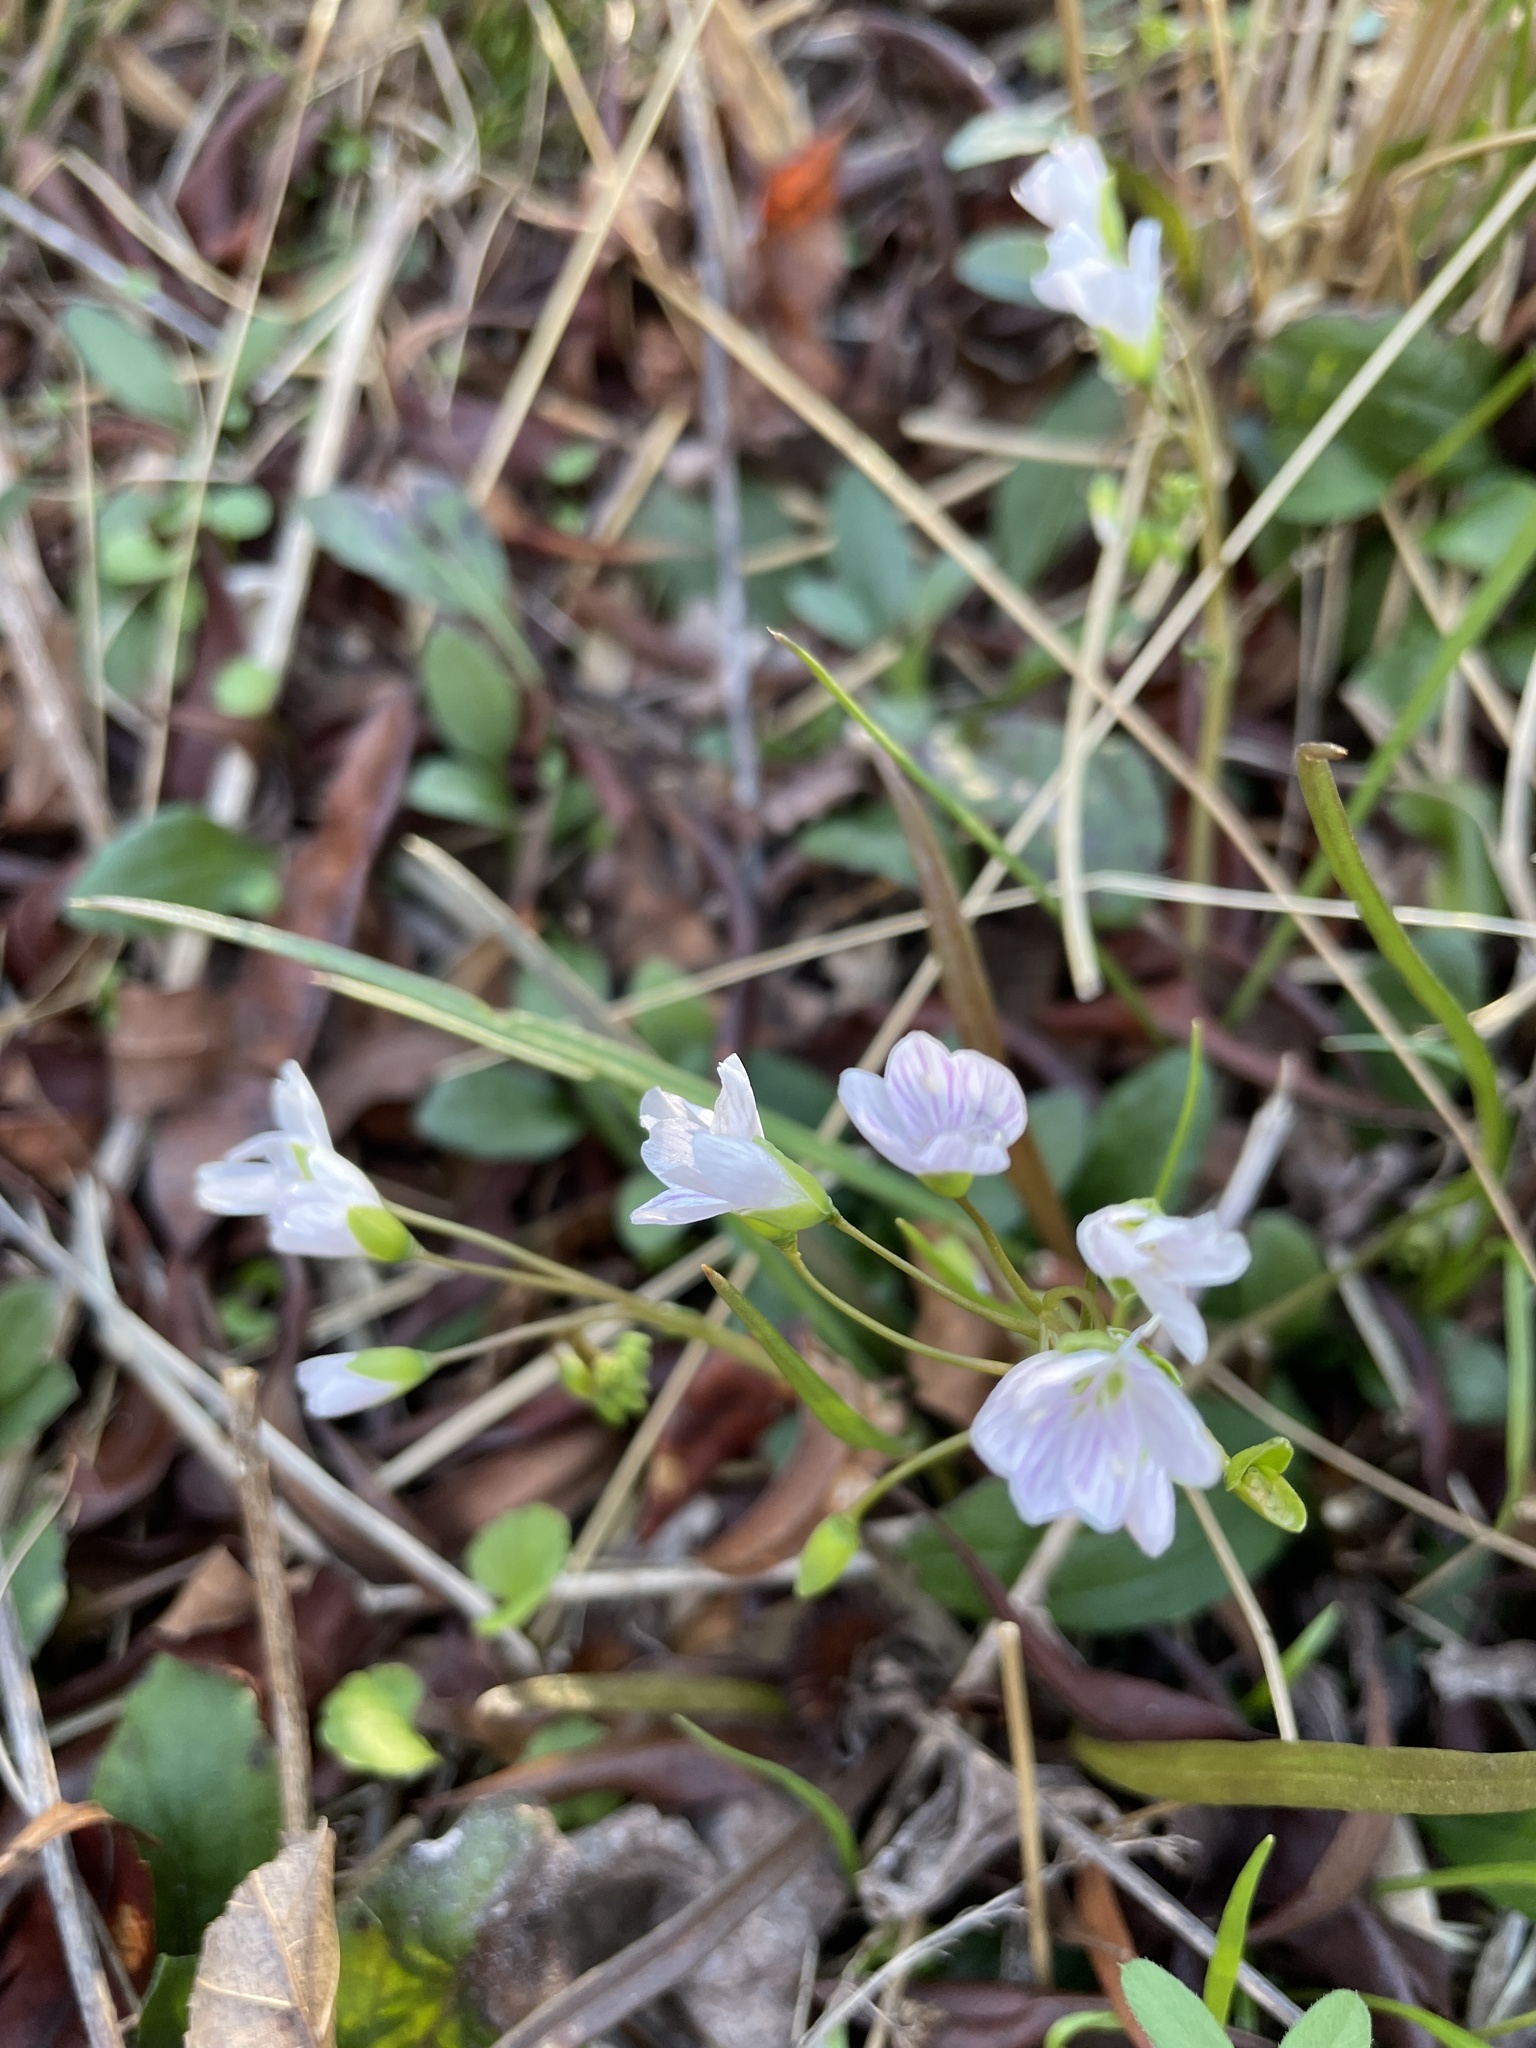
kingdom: Plantae
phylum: Tracheophyta
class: Magnoliopsida
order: Caryophyllales
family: Montiaceae
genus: Claytonia
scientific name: Claytonia virginica
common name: Virginia springbeauty
